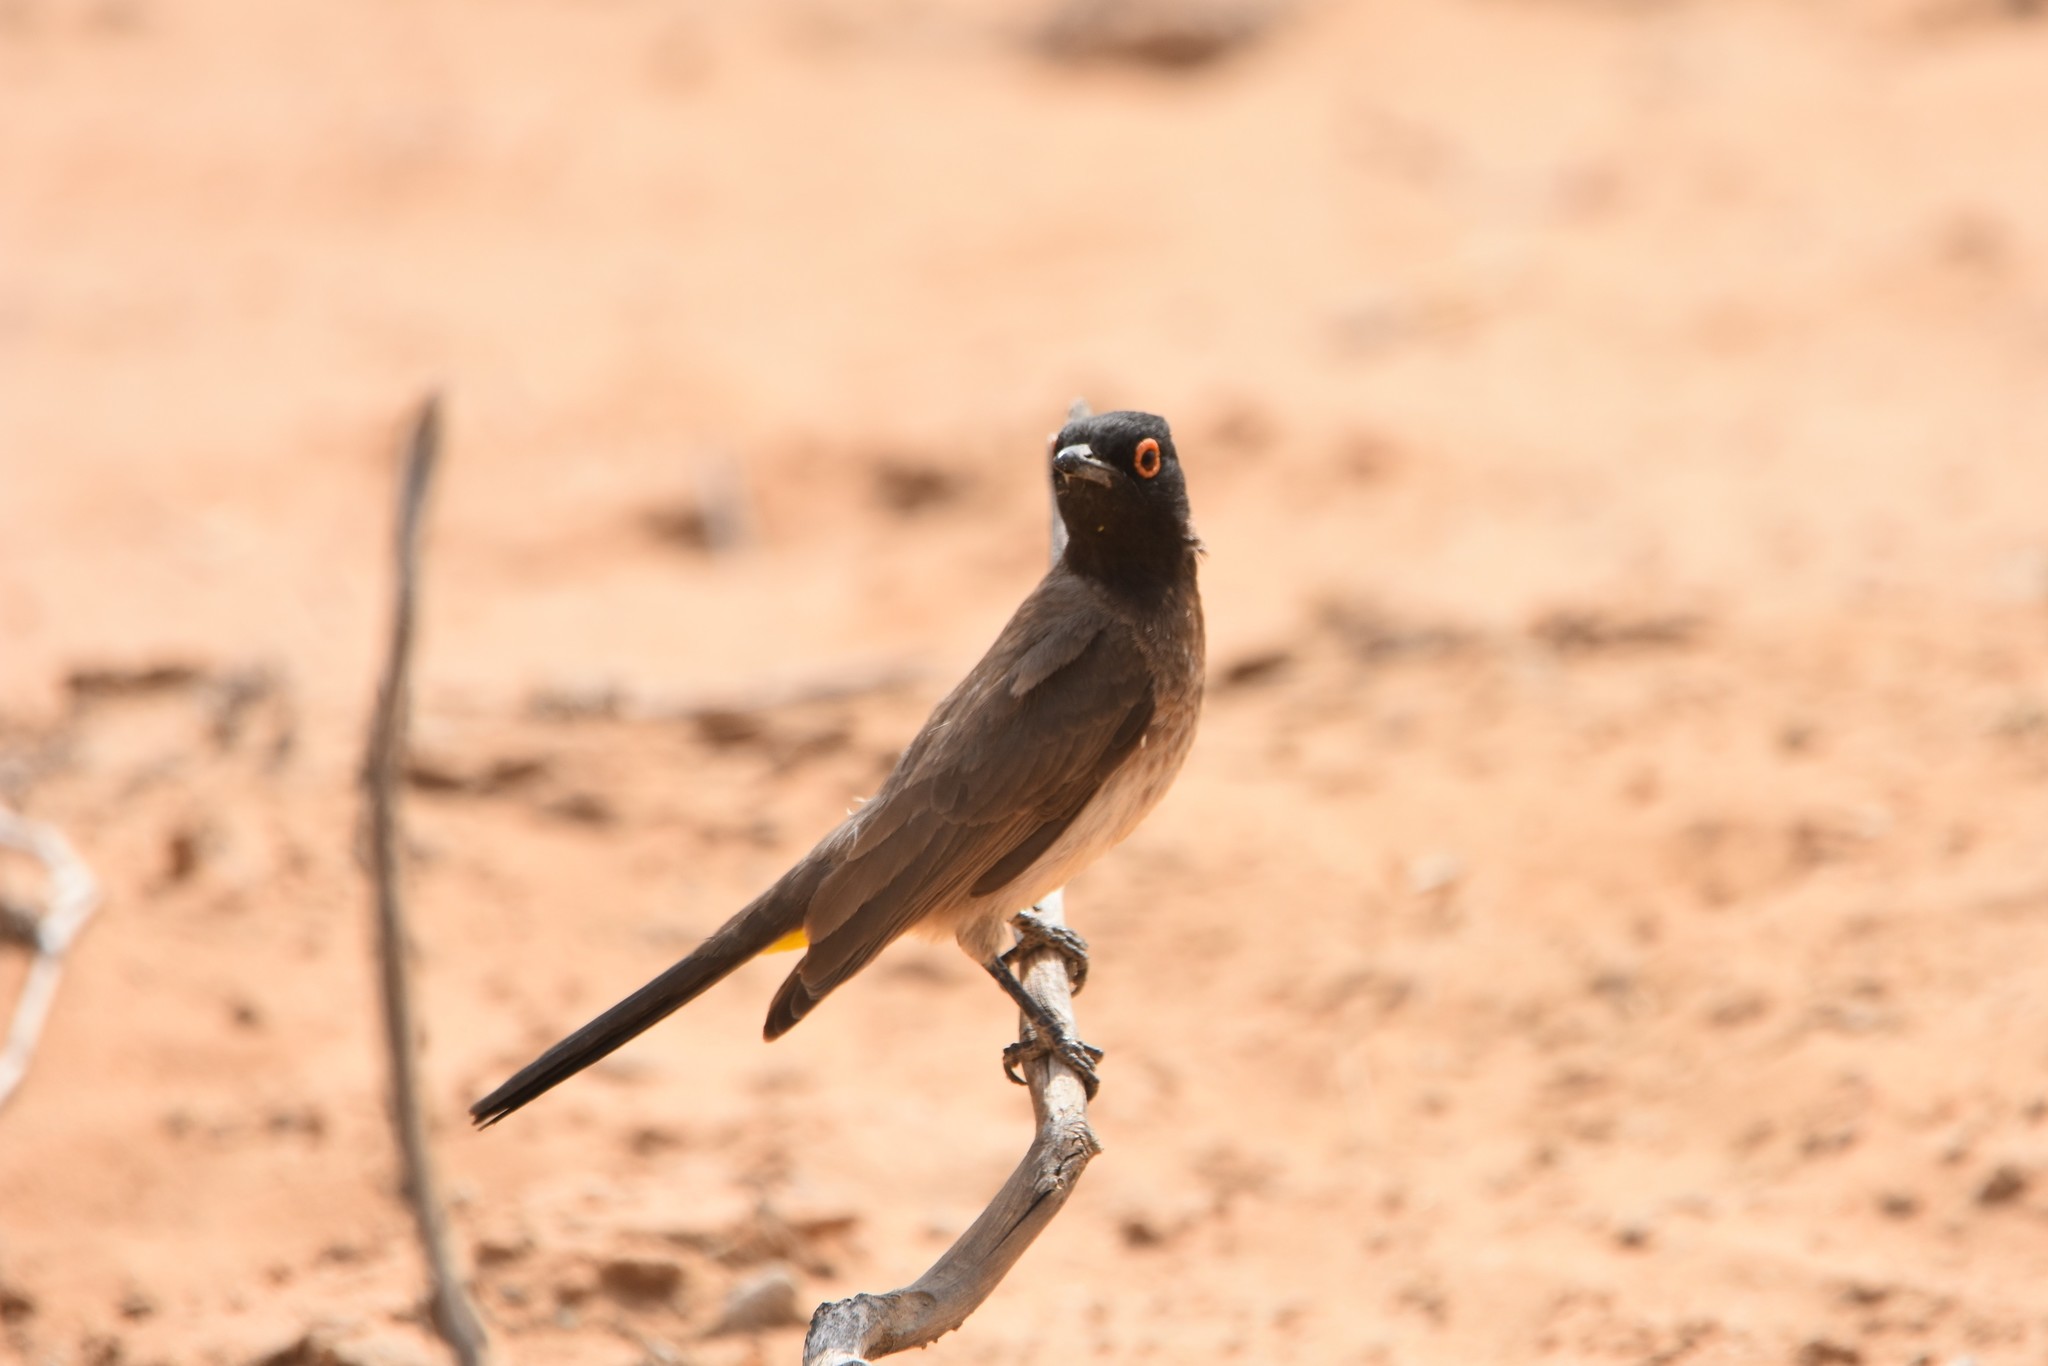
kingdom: Animalia
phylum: Chordata
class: Aves
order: Passeriformes
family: Pycnonotidae
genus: Pycnonotus
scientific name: Pycnonotus nigricans
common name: African red-eyed bulbul
